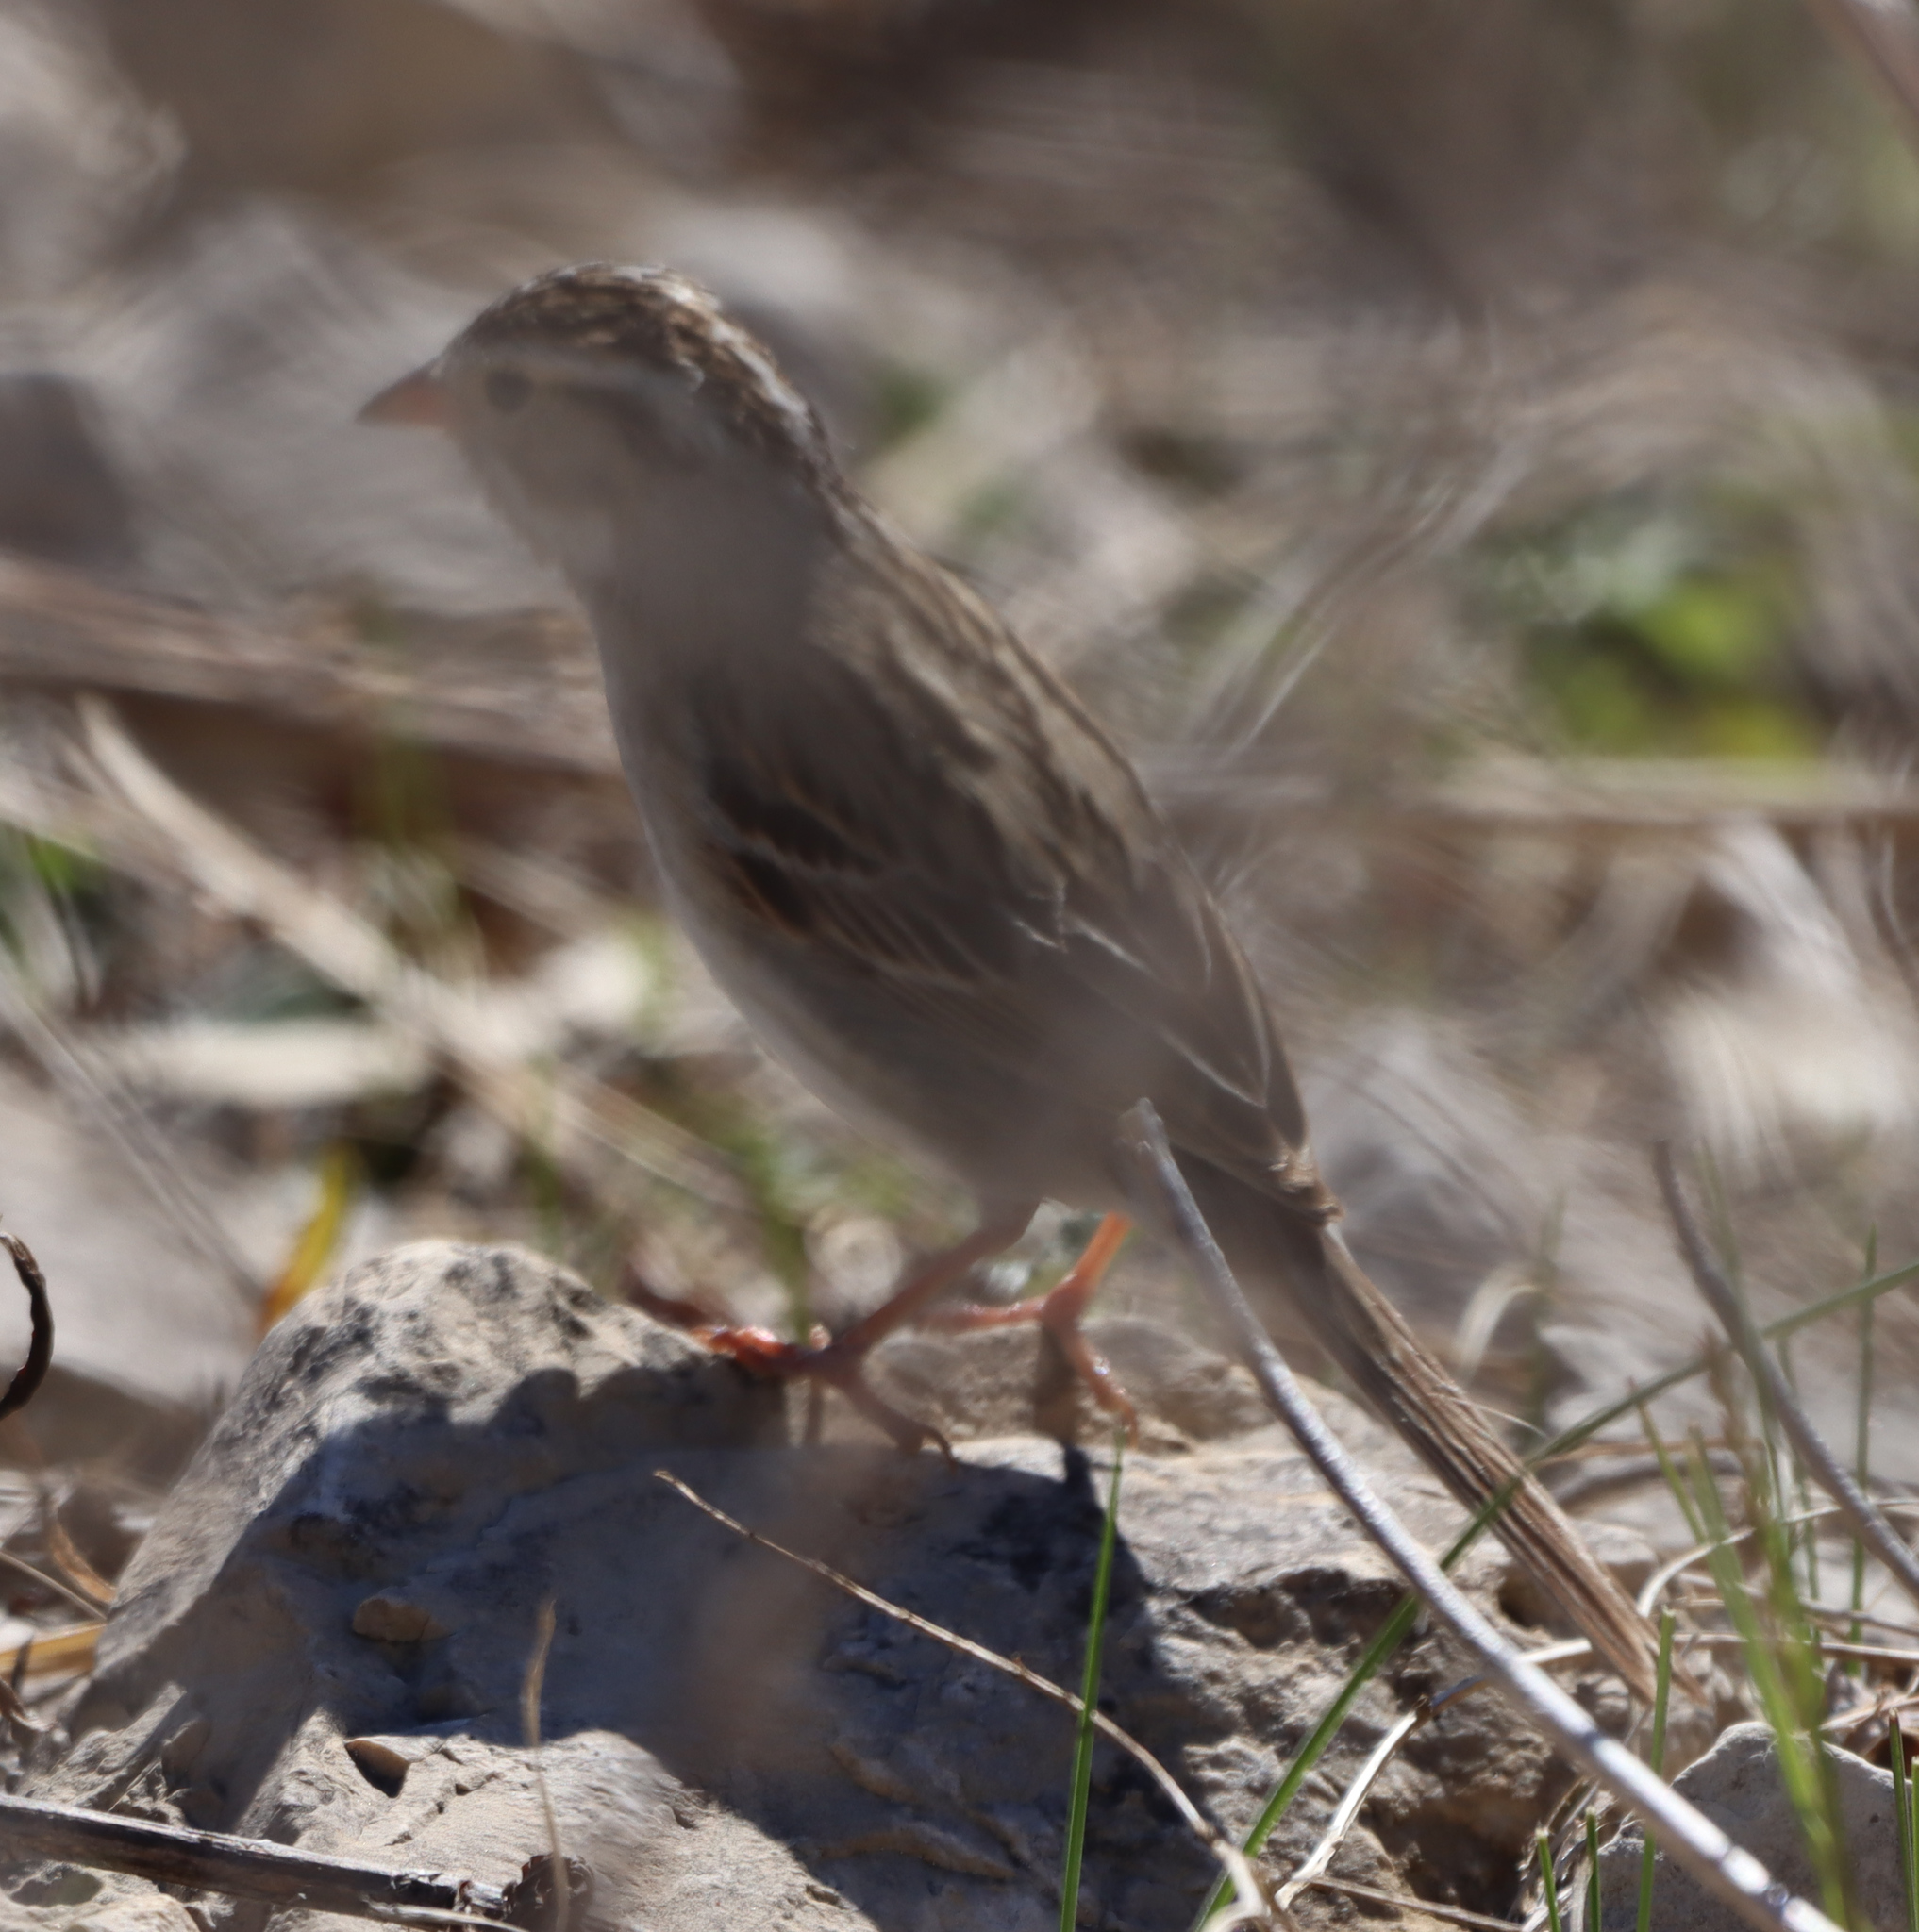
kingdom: Animalia
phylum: Chordata
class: Aves
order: Passeriformes
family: Passerellidae
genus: Spizella
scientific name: Spizella pallida
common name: Clay-colored sparrow
